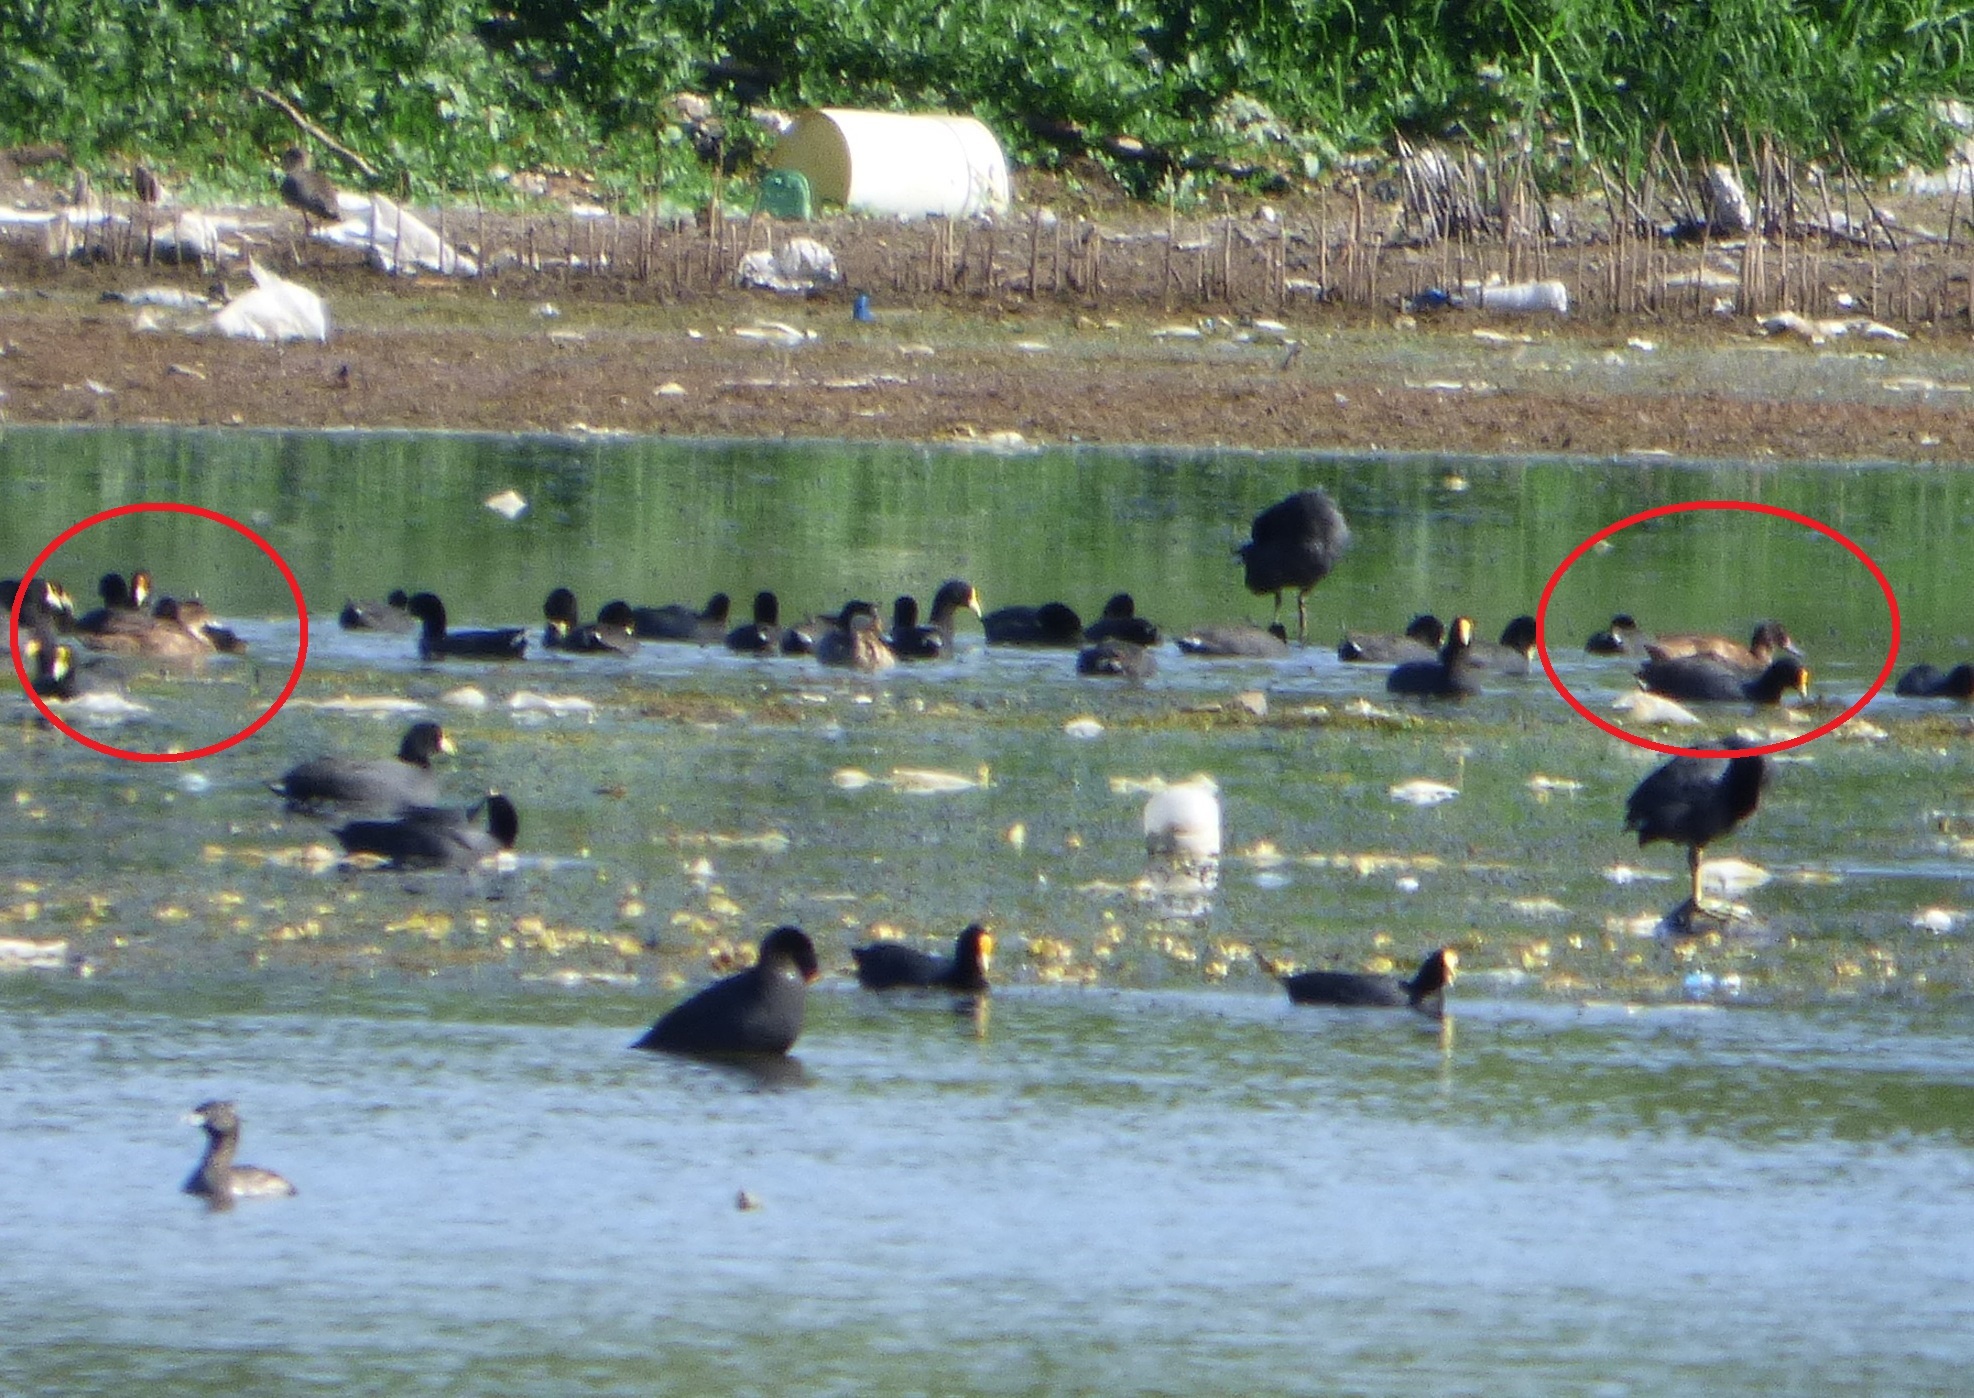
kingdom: Animalia
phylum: Chordata
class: Aves
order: Anseriformes
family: Anatidae
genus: Heteronetta
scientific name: Heteronetta atricapilla
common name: Black-headed duck
